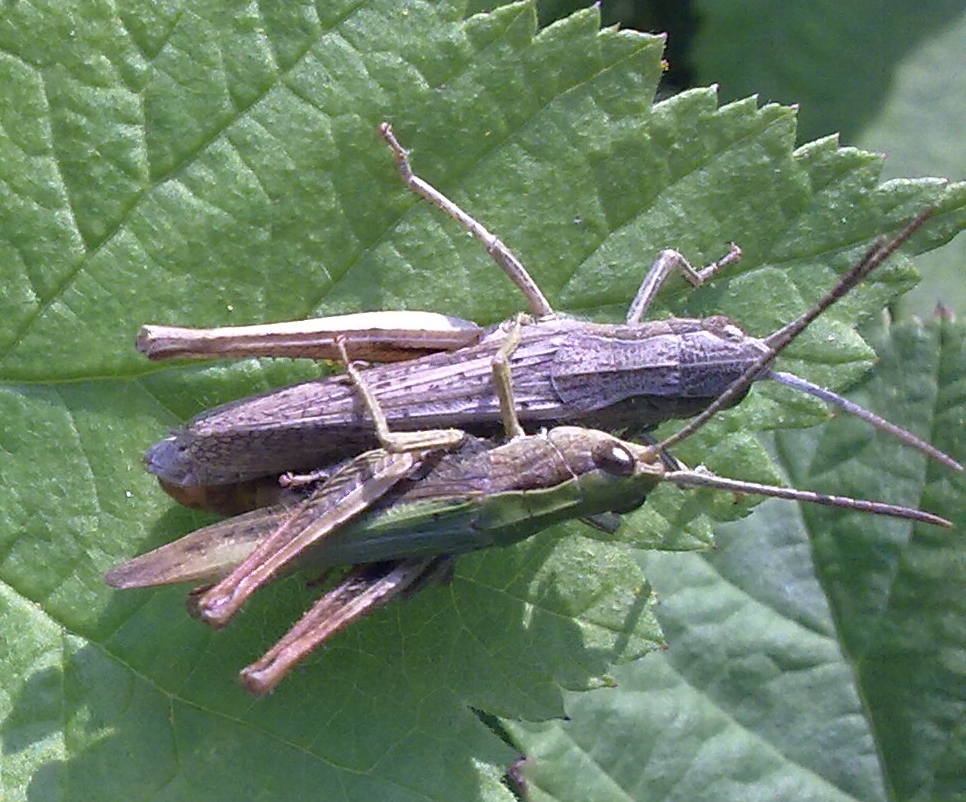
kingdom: Animalia
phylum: Arthropoda
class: Insecta
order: Orthoptera
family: Acrididae
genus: Chorthippus
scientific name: Chorthippus dorsatus
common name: Steppe grasshopper
